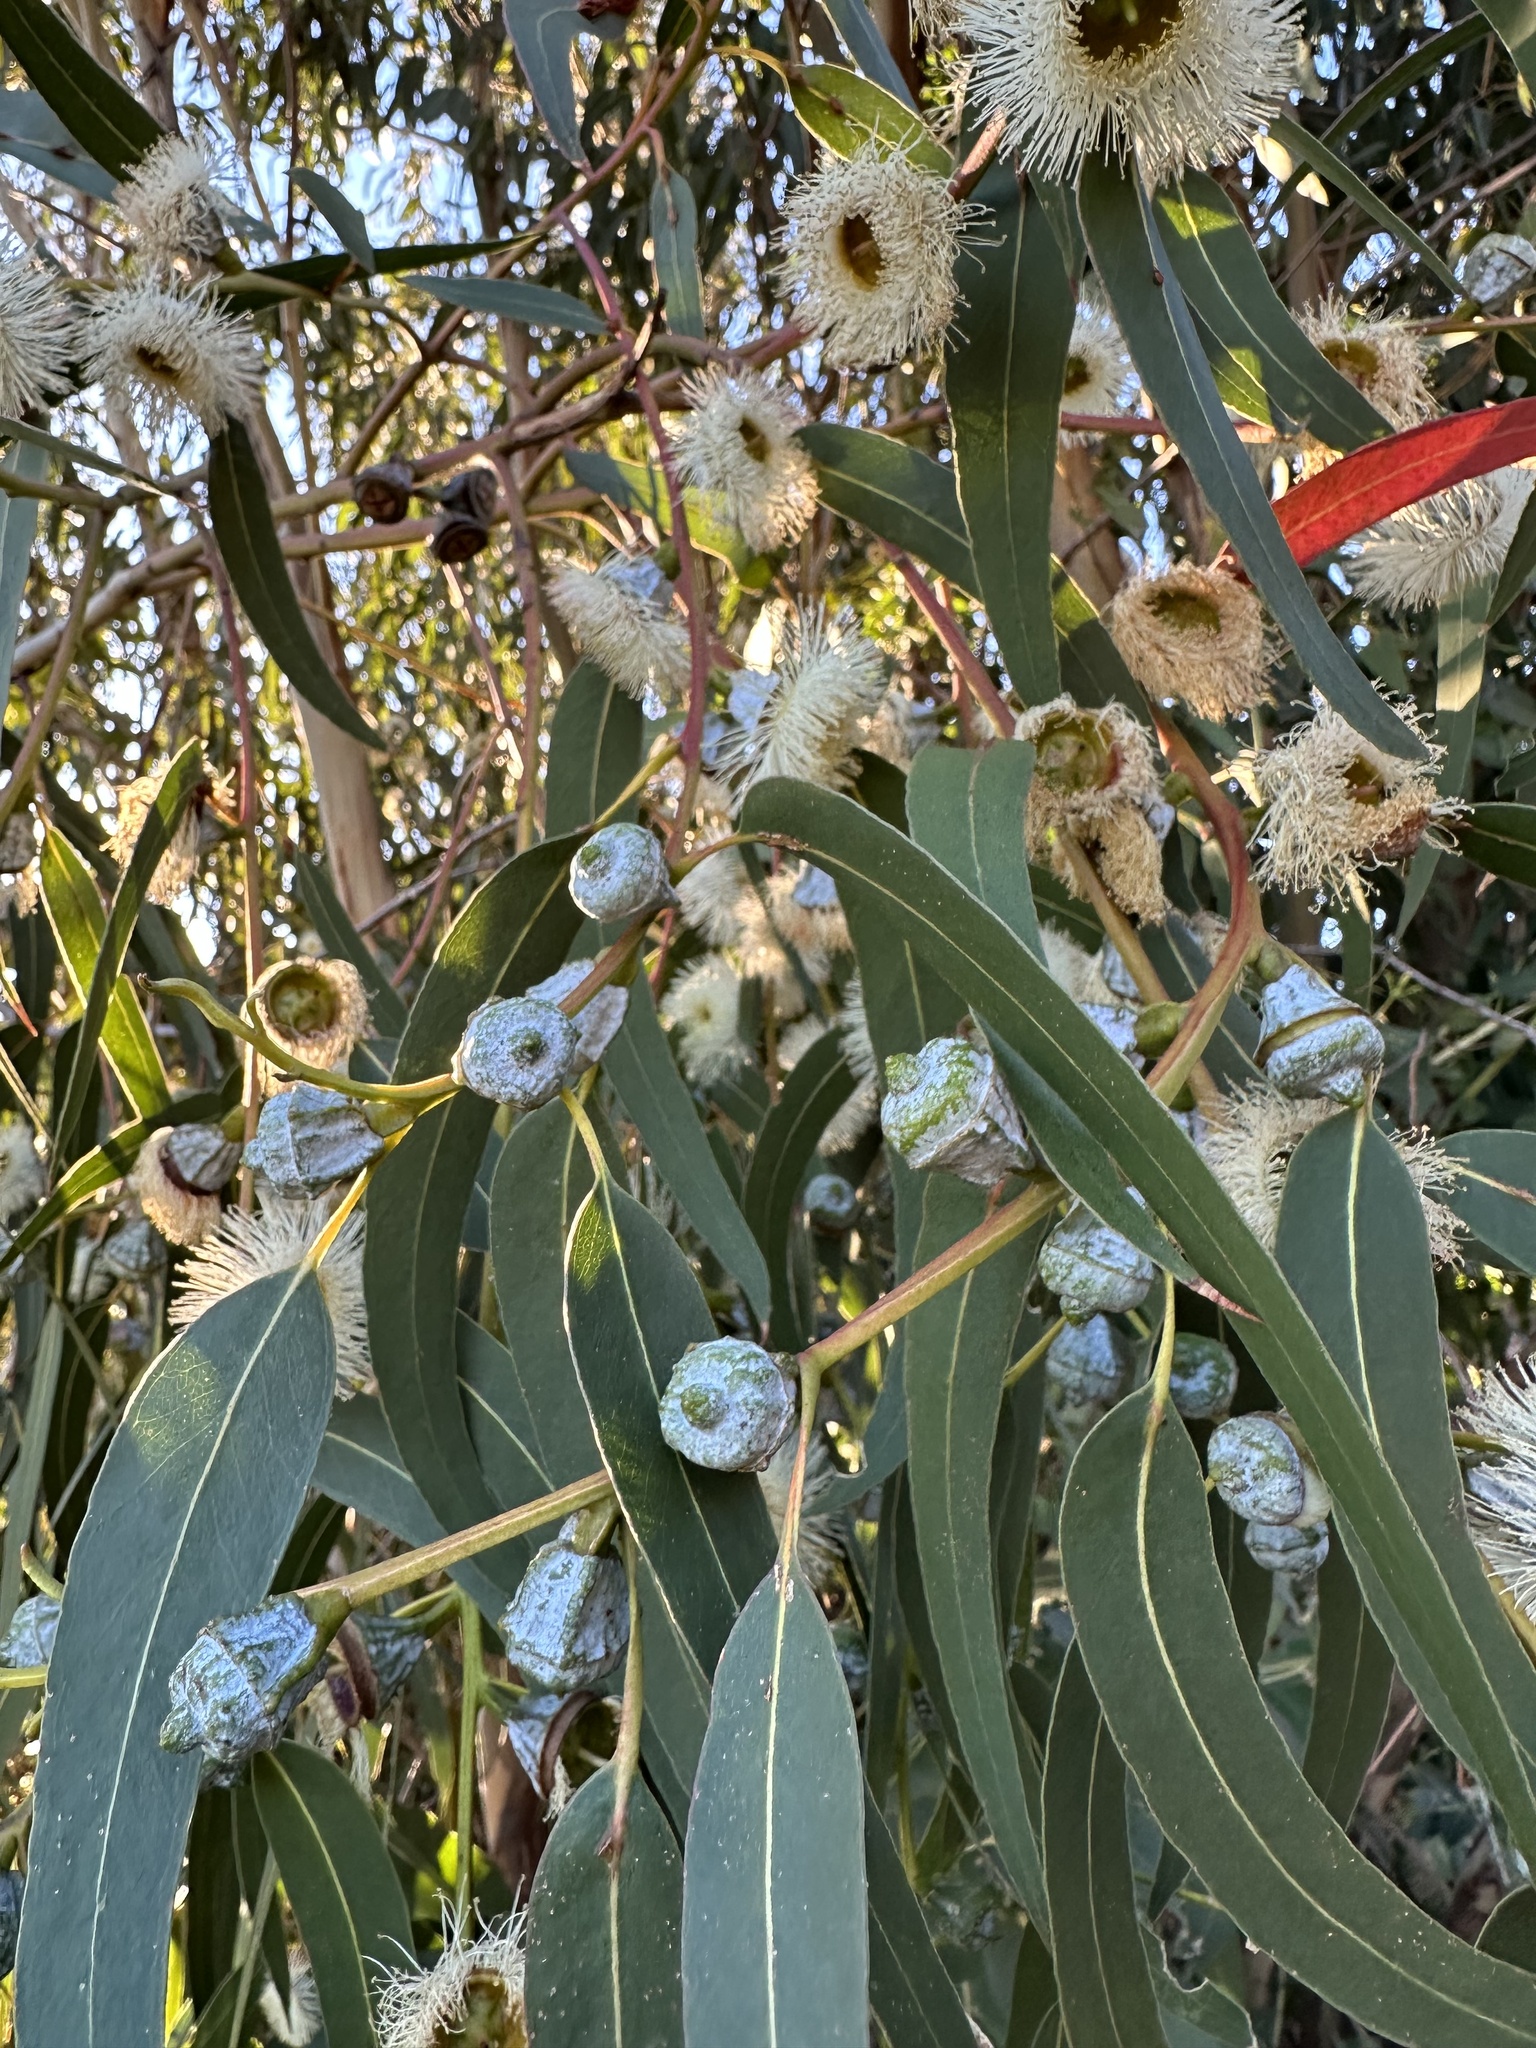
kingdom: Plantae
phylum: Tracheophyta
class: Magnoliopsida
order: Myrtales
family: Myrtaceae
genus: Eucalyptus
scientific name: Eucalyptus globulus
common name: Southern blue-gum
